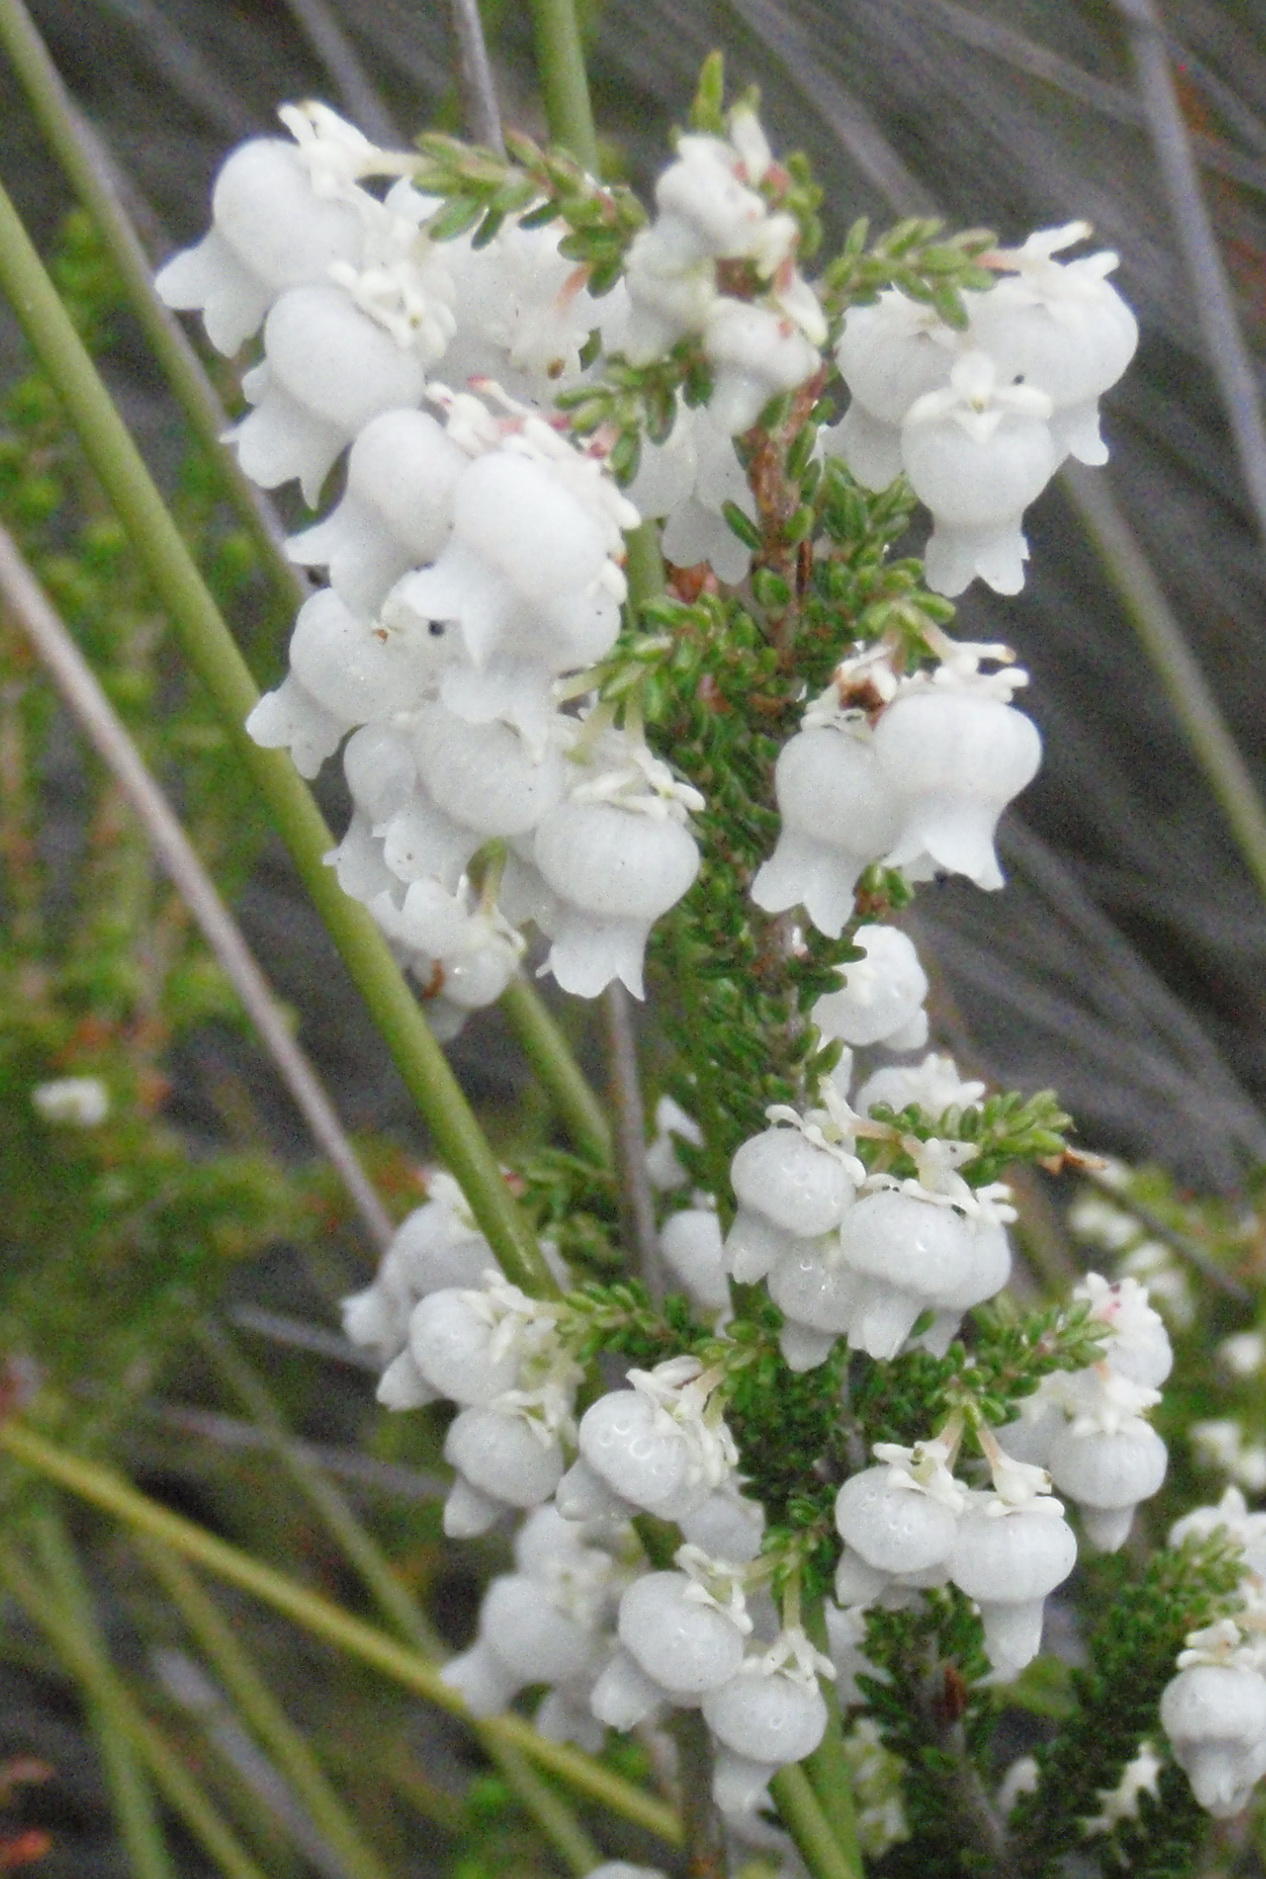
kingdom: Plantae
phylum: Tracheophyta
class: Magnoliopsida
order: Ericales
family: Ericaceae
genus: Erica
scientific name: Erica glomiflora
